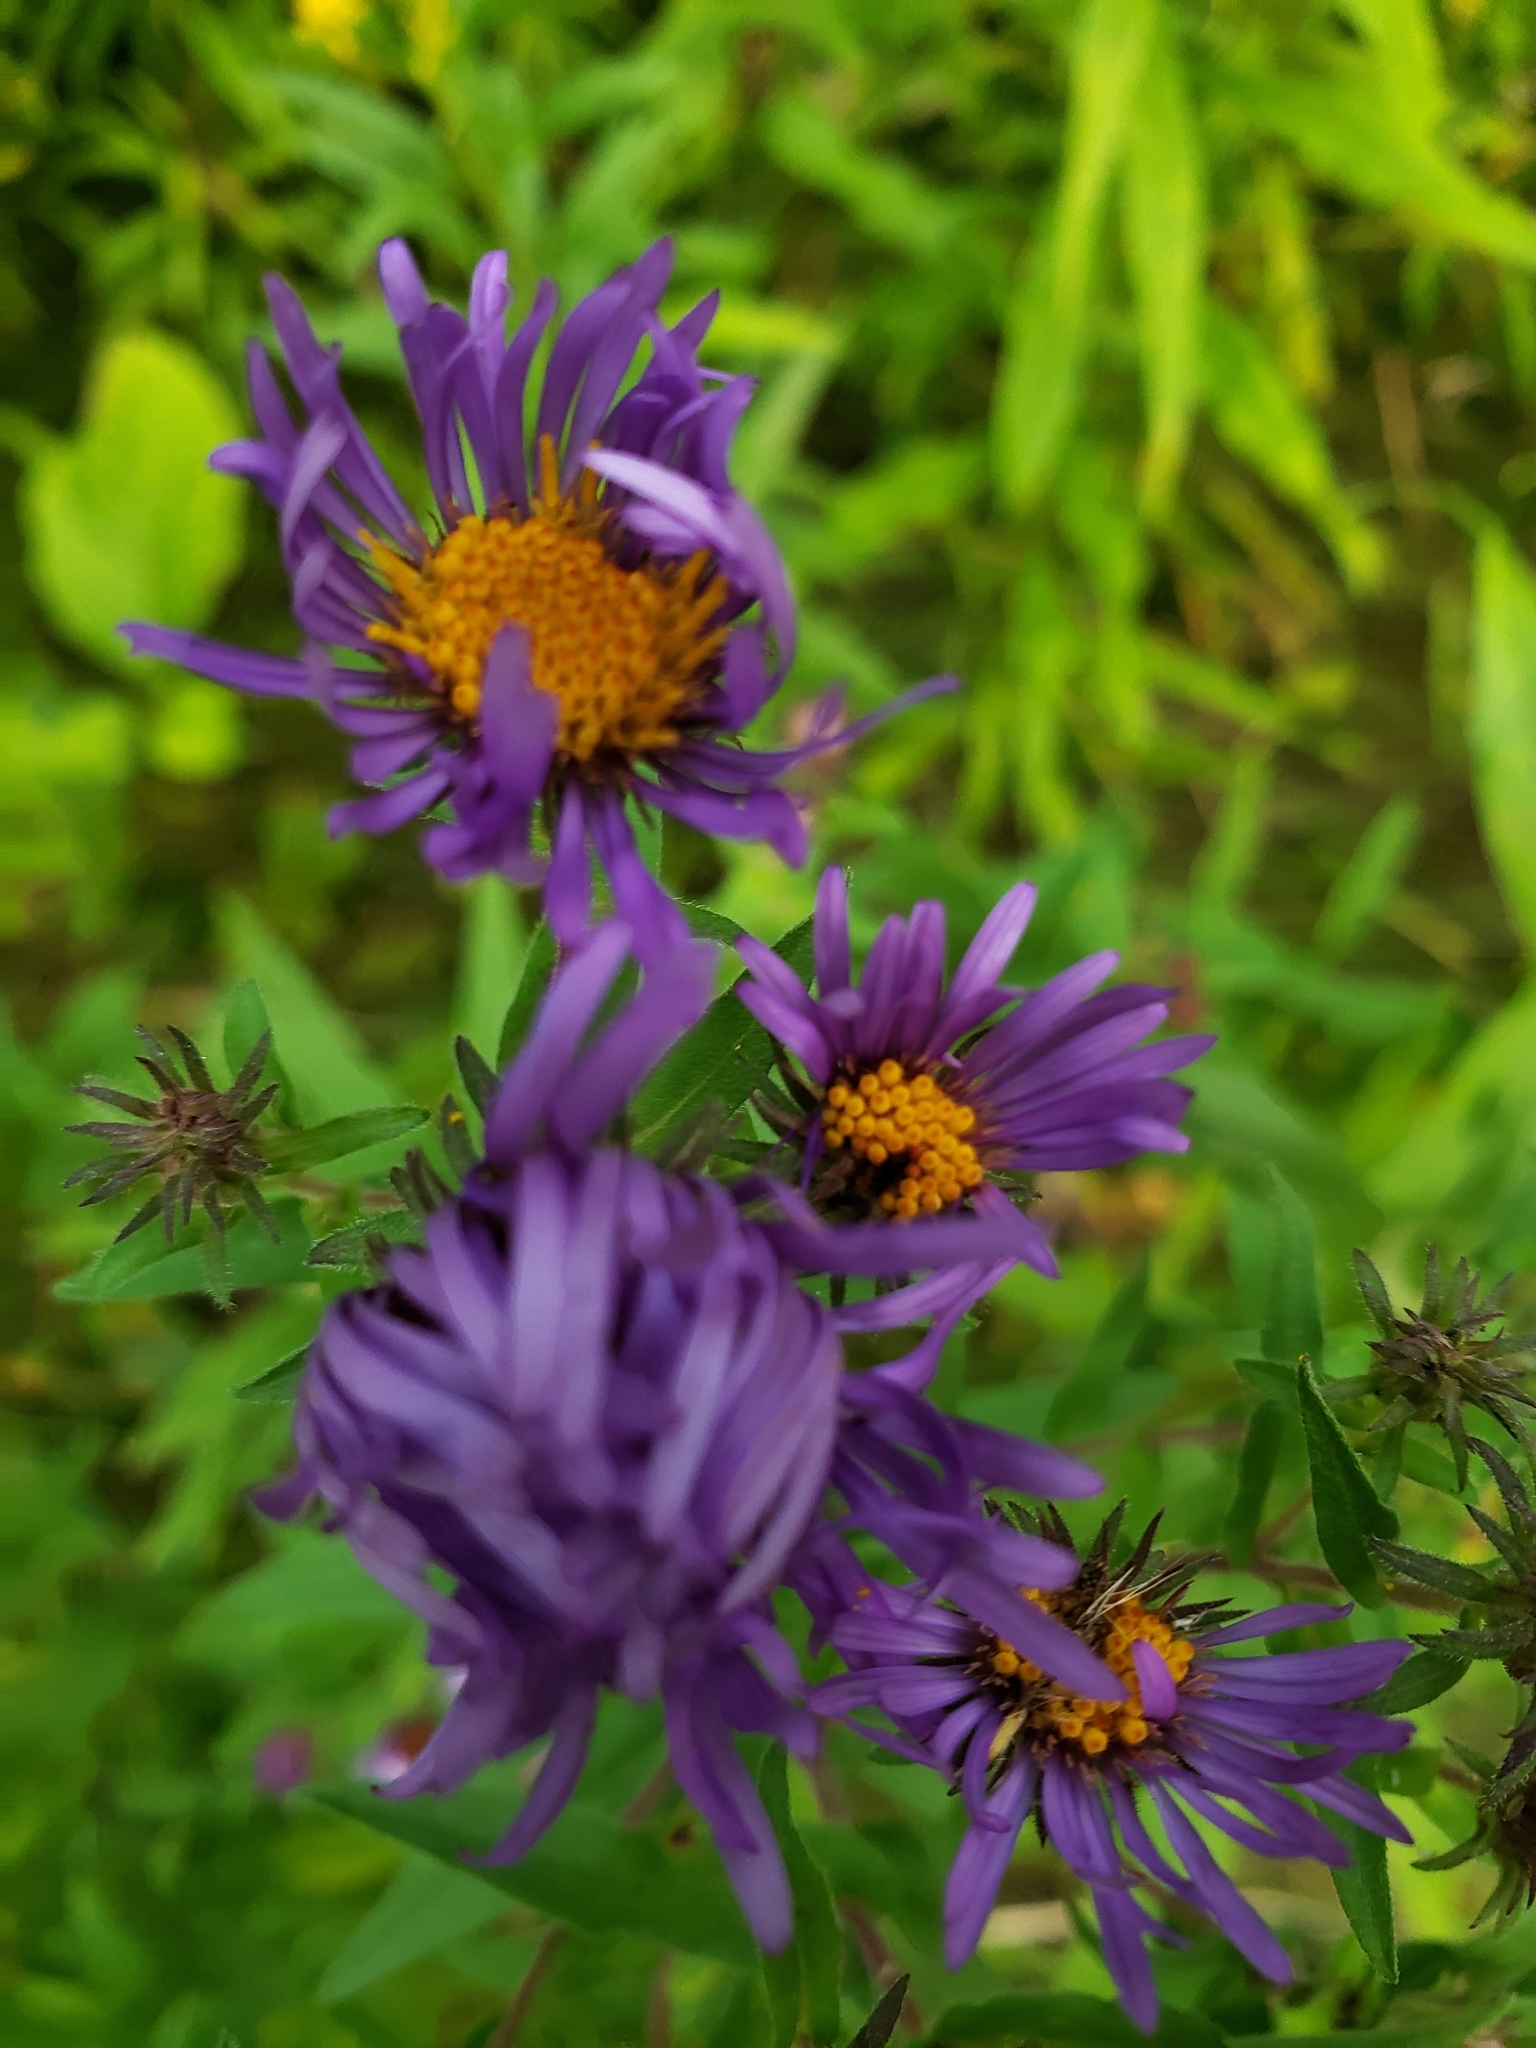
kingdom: Plantae
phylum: Tracheophyta
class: Magnoliopsida
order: Asterales
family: Asteraceae
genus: Symphyotrichum
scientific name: Symphyotrichum novae-angliae
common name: Michaelmas daisy
